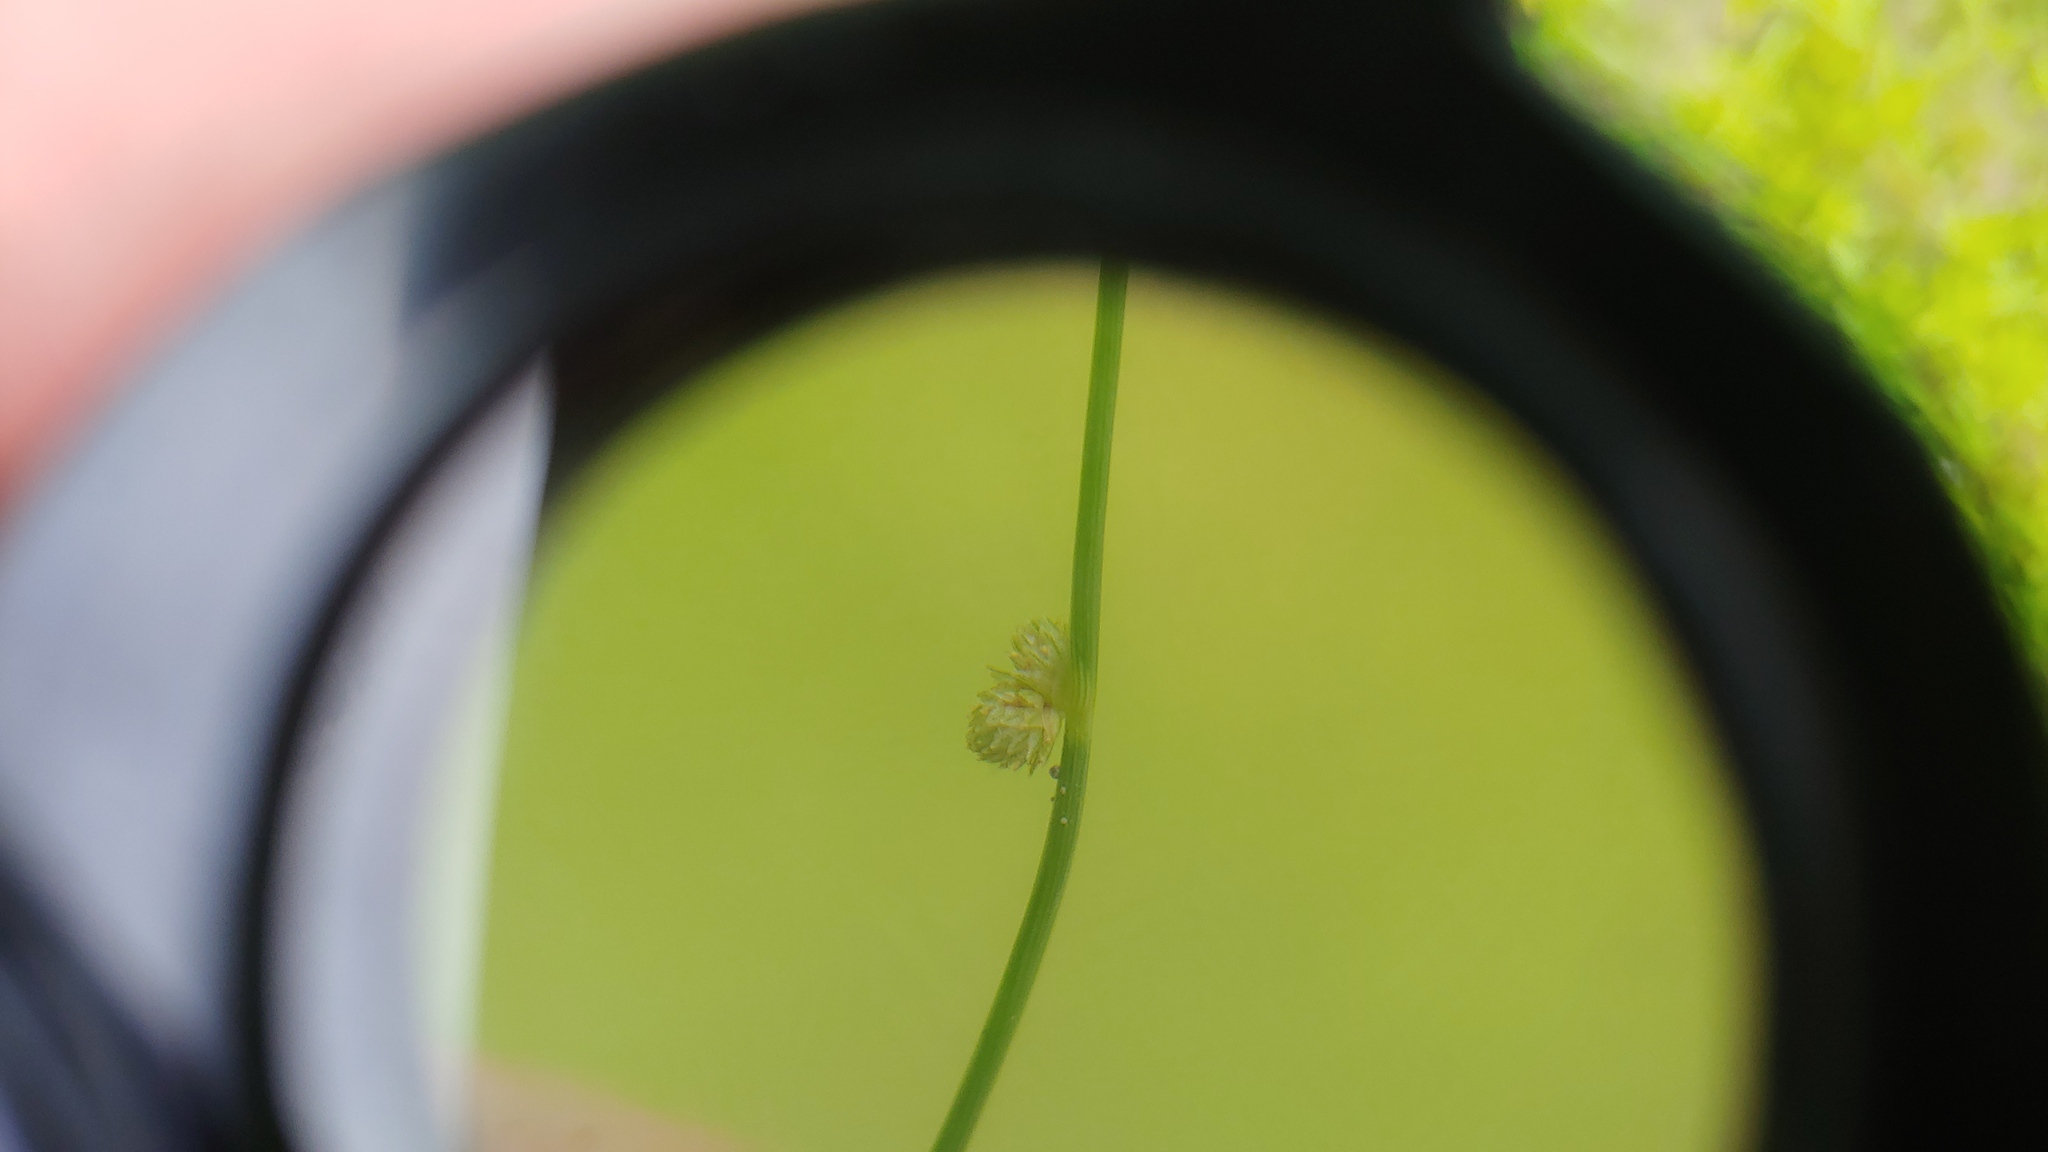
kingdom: Plantae
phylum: Tracheophyta
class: Liliopsida
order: Poales
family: Cyperaceae
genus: Cyperus
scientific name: Cyperus subsquarrosus
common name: Dwarf bulrush
